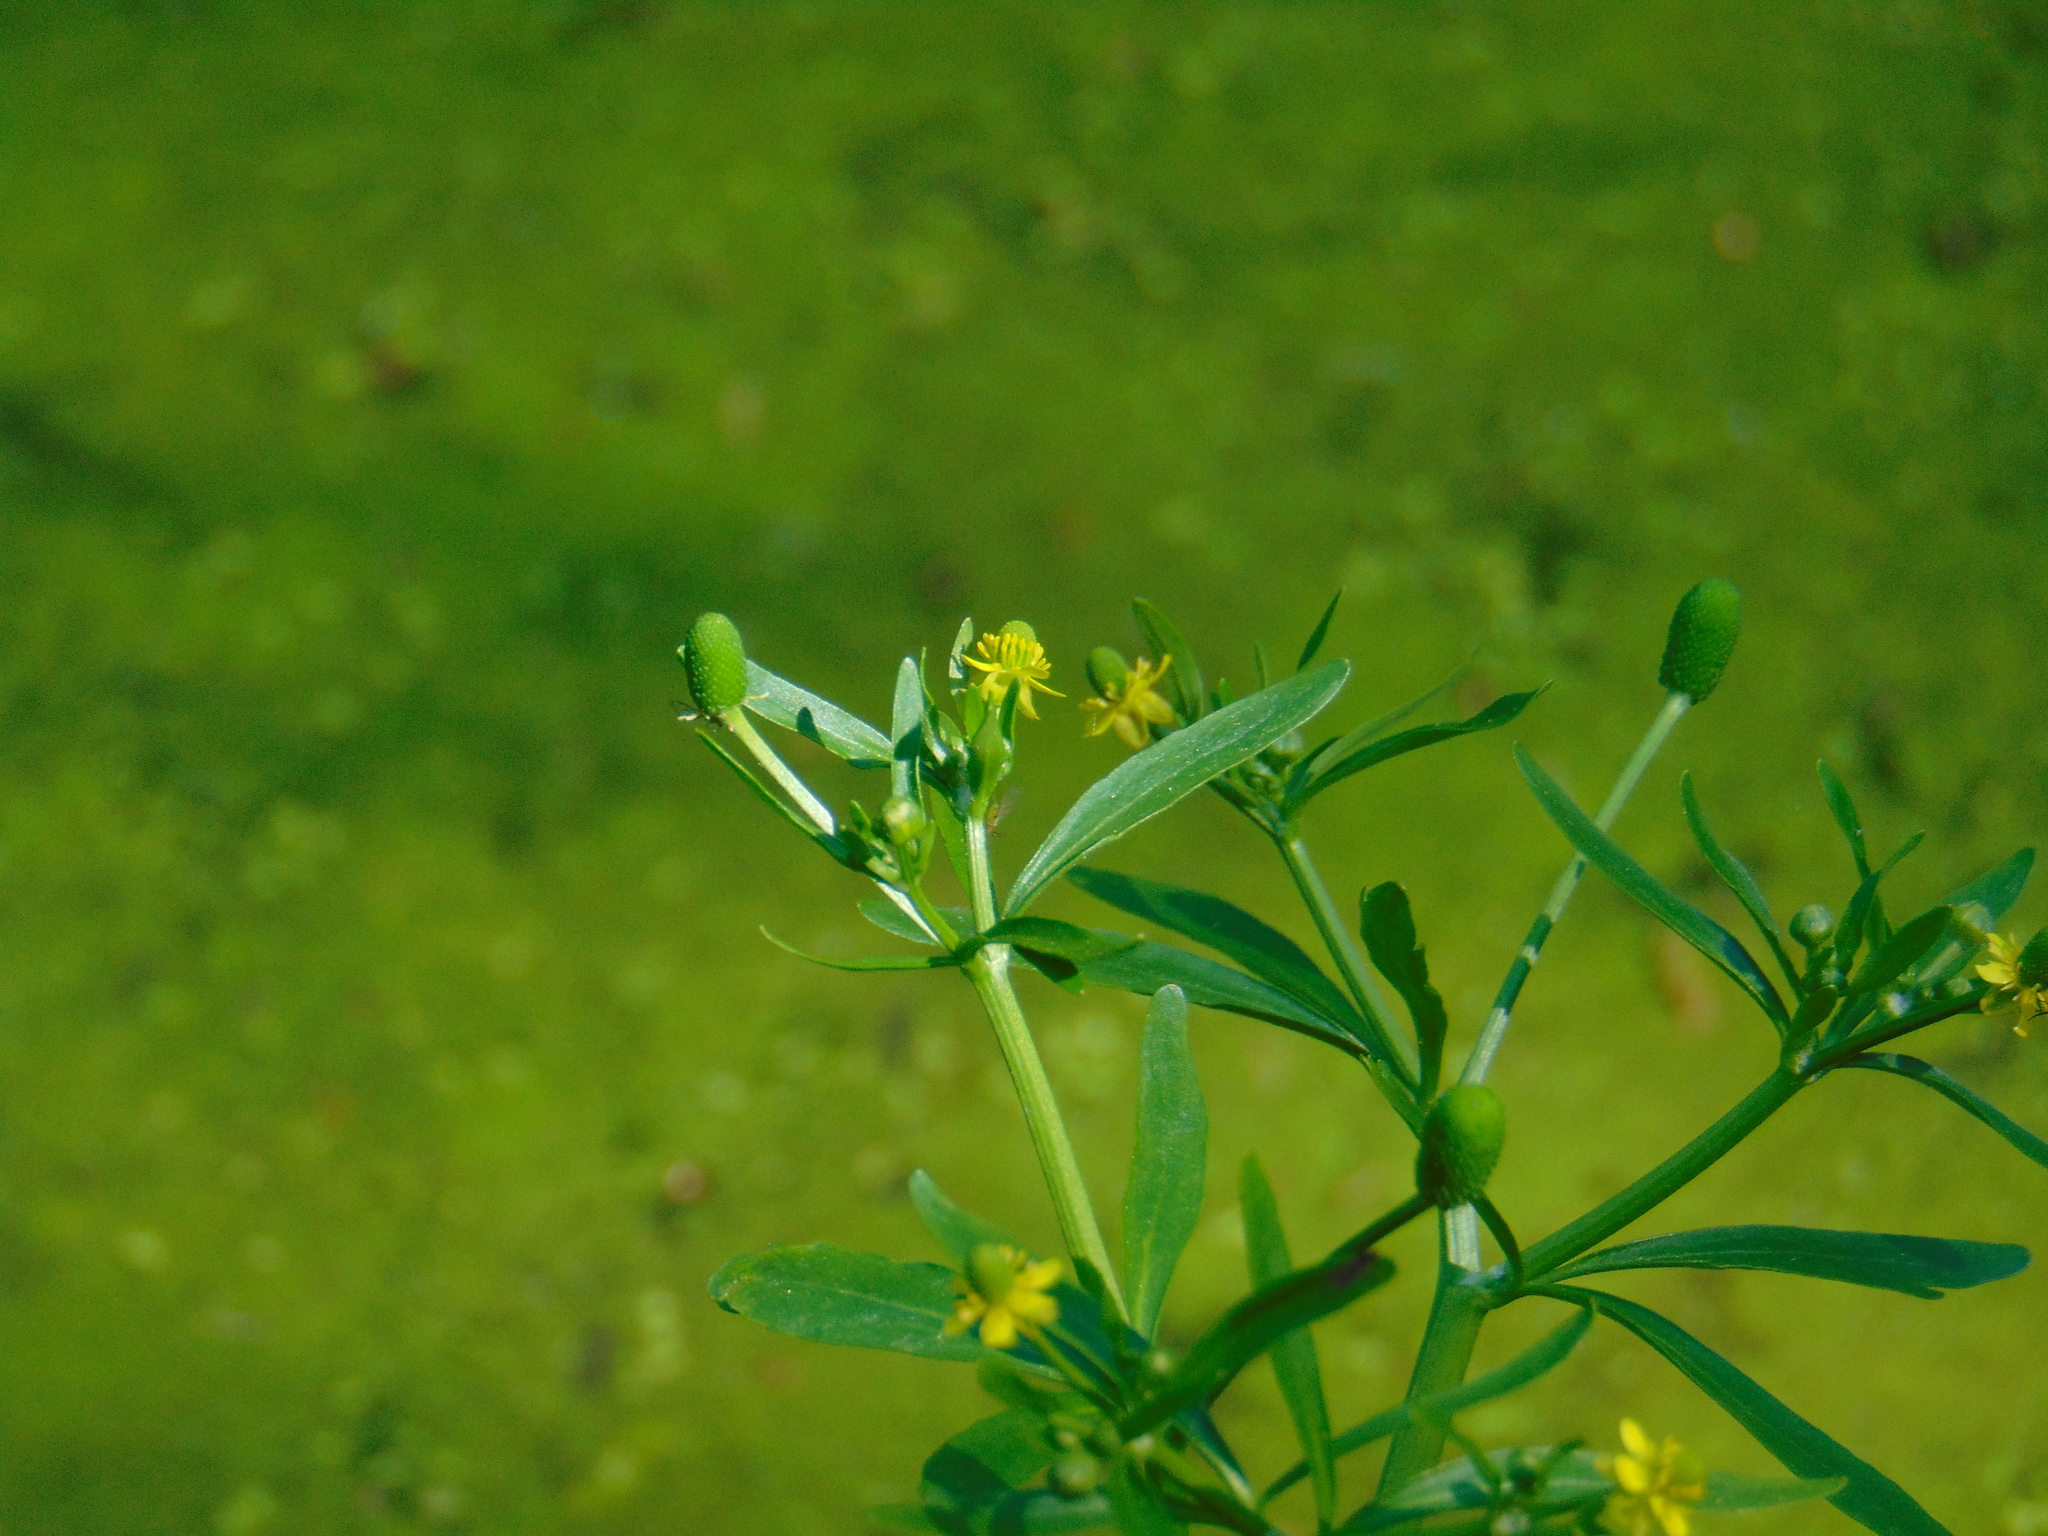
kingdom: Plantae
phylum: Tracheophyta
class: Magnoliopsida
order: Ranunculales
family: Ranunculaceae
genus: Ranunculus
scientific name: Ranunculus sceleratus
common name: Celery-leaved buttercup
